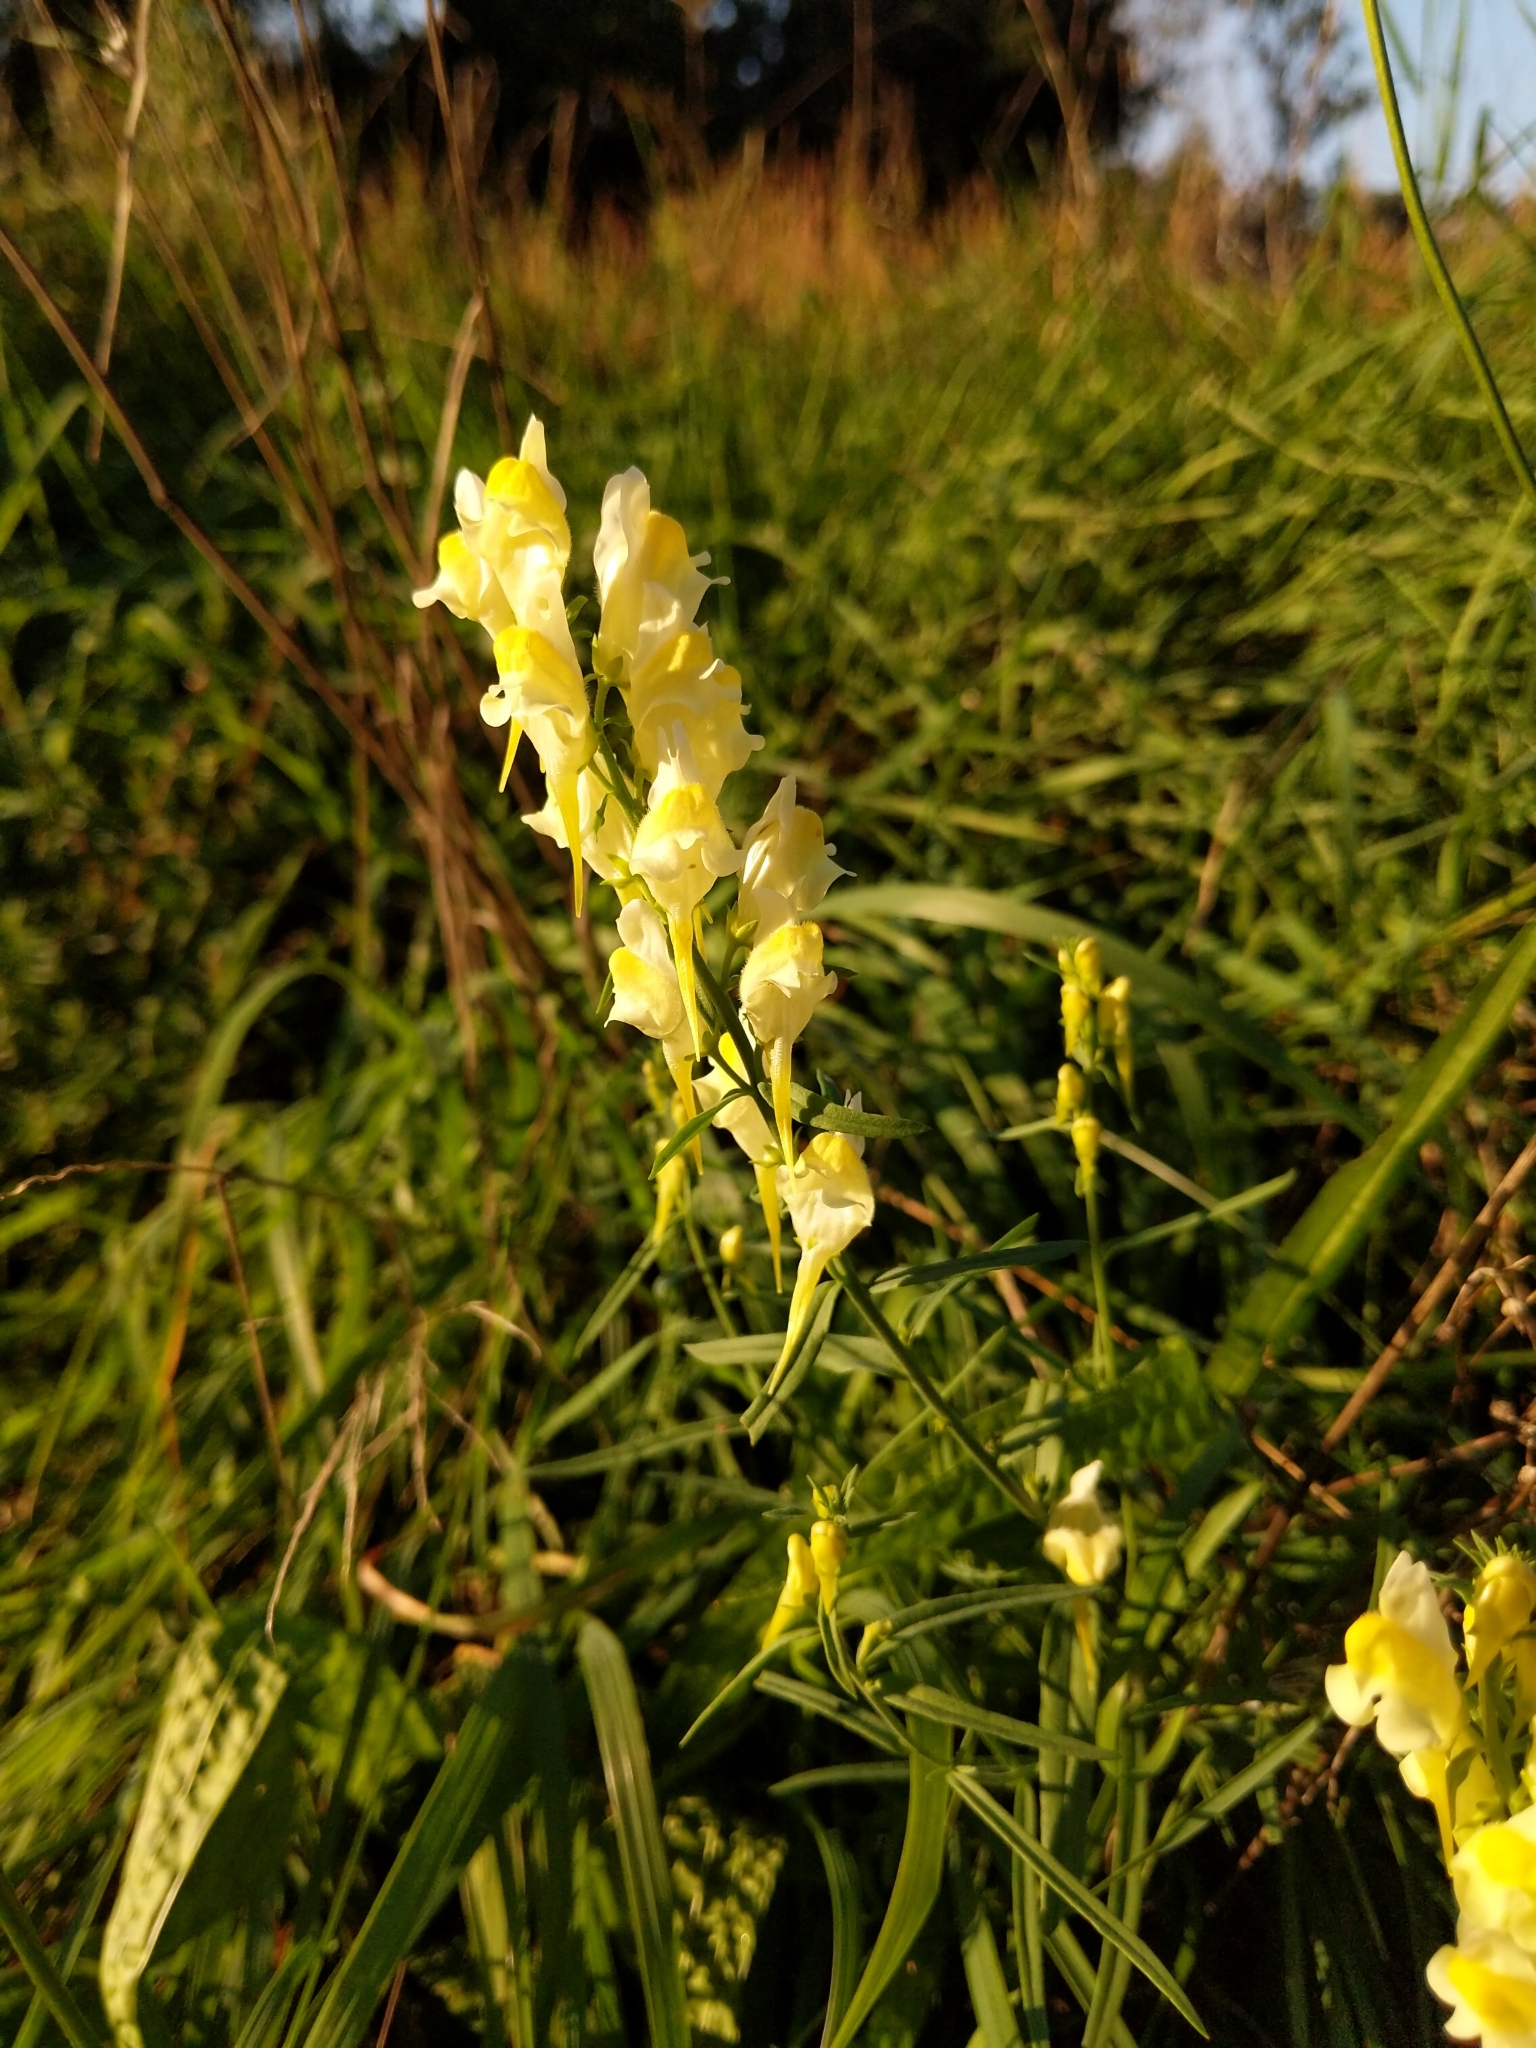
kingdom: Plantae
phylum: Tracheophyta
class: Magnoliopsida
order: Lamiales
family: Plantaginaceae
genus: Linaria
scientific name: Linaria vulgaris
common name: Butter and eggs
